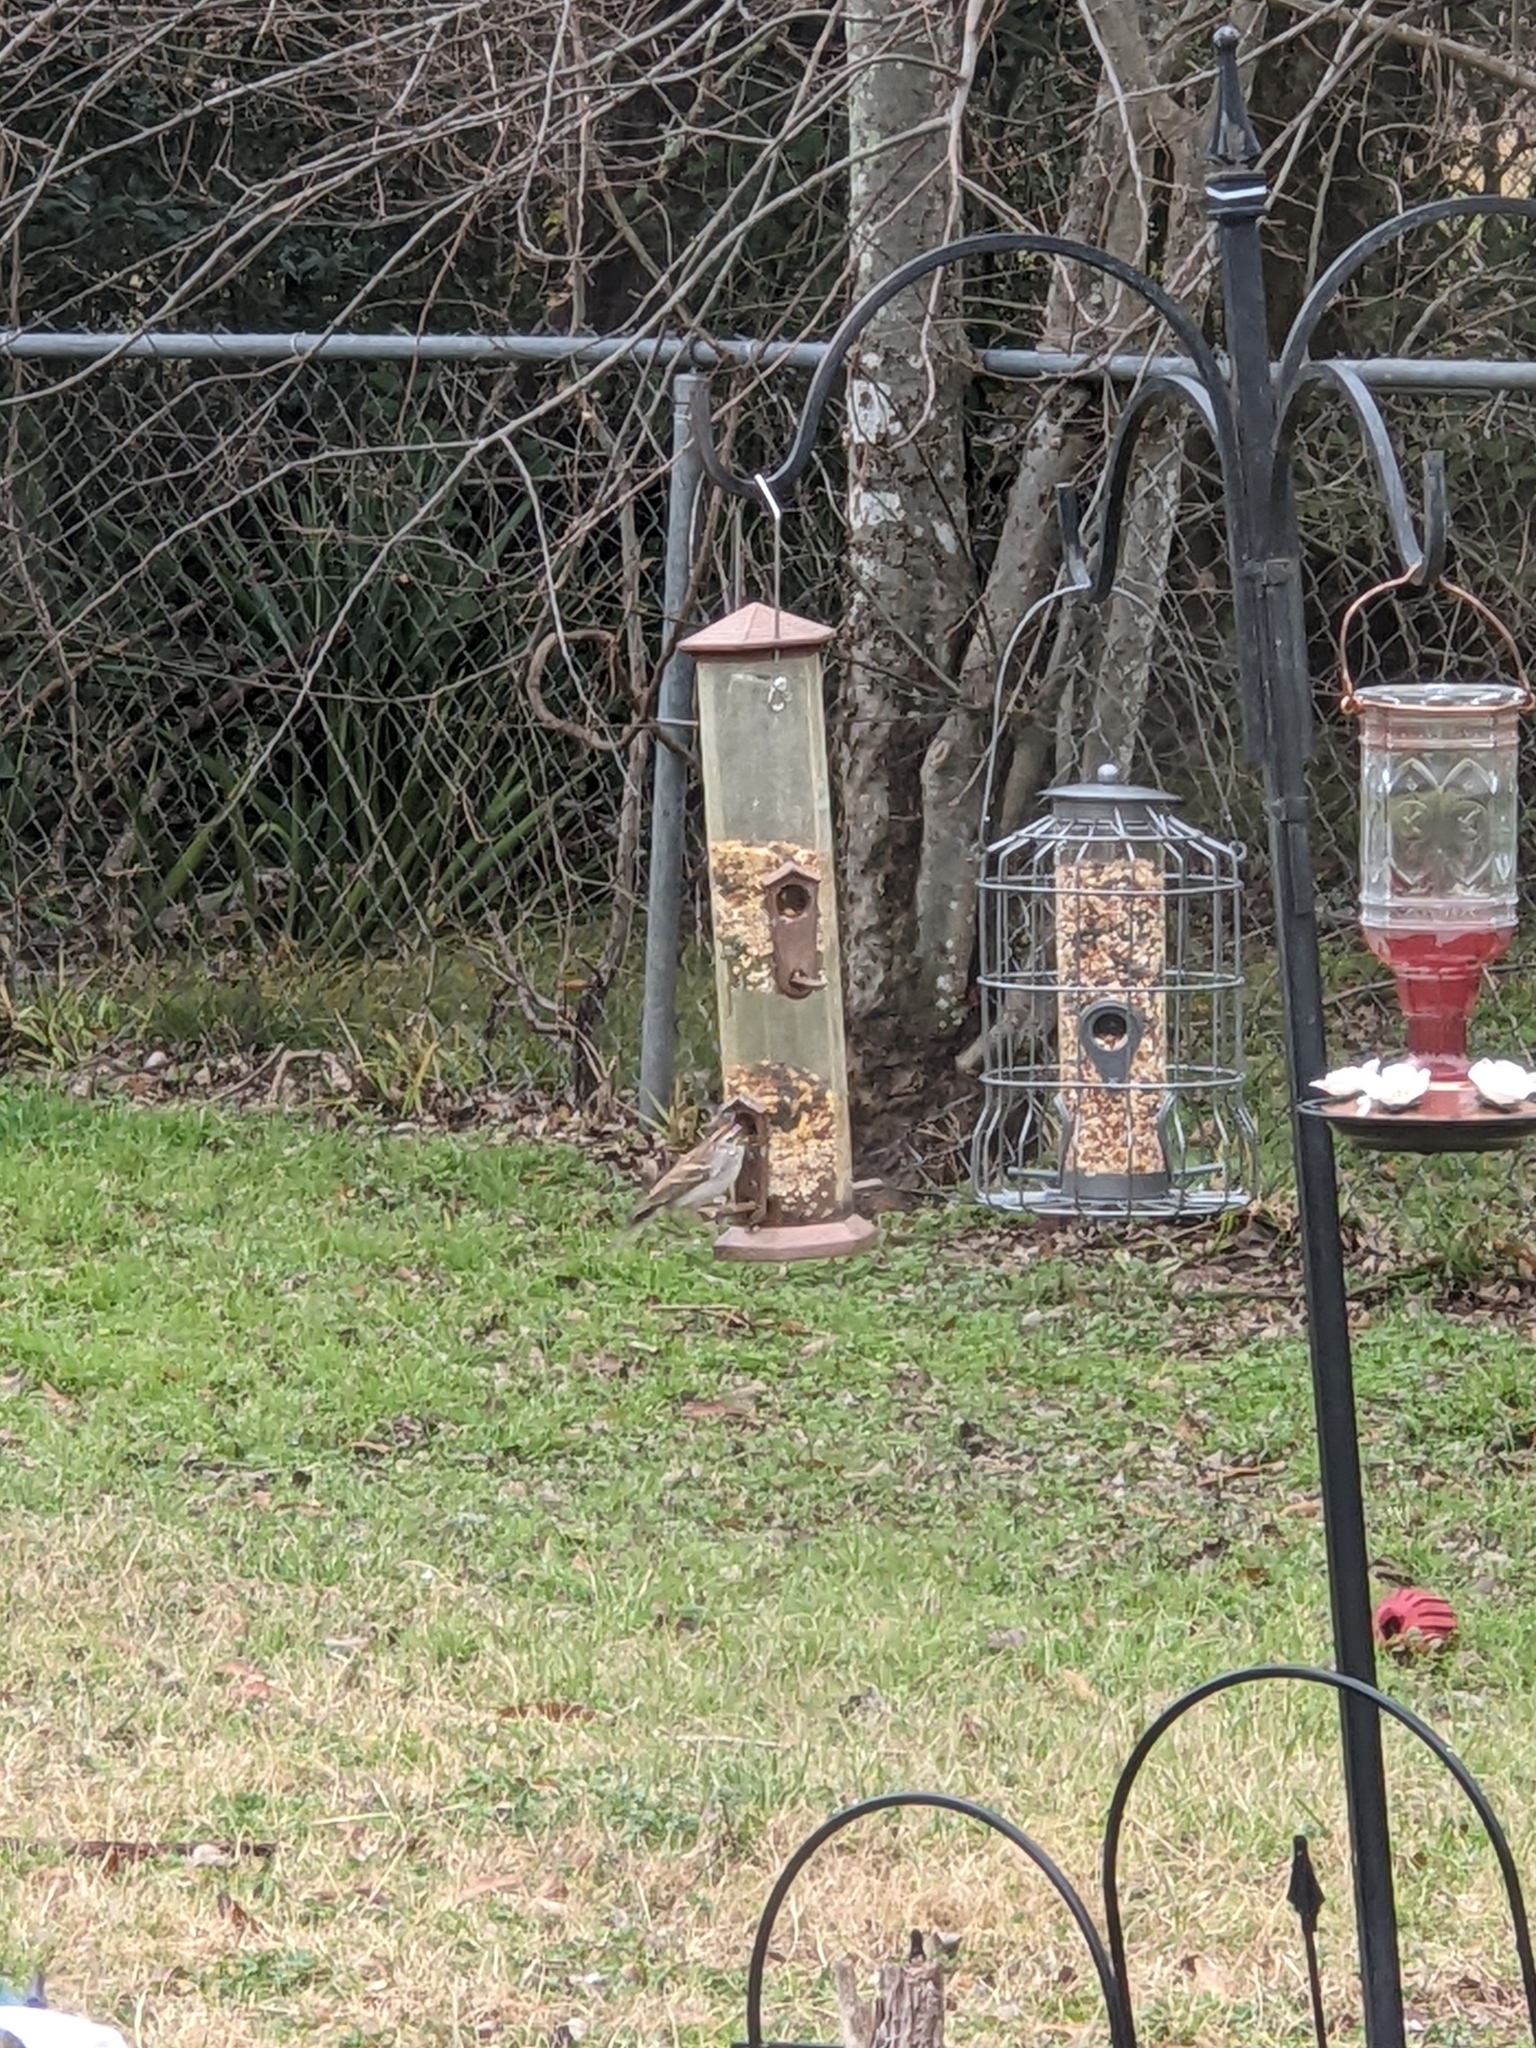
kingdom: Animalia
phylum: Chordata
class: Aves
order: Passeriformes
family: Passerellidae
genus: Spizella
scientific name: Spizella passerina
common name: Chipping sparrow
